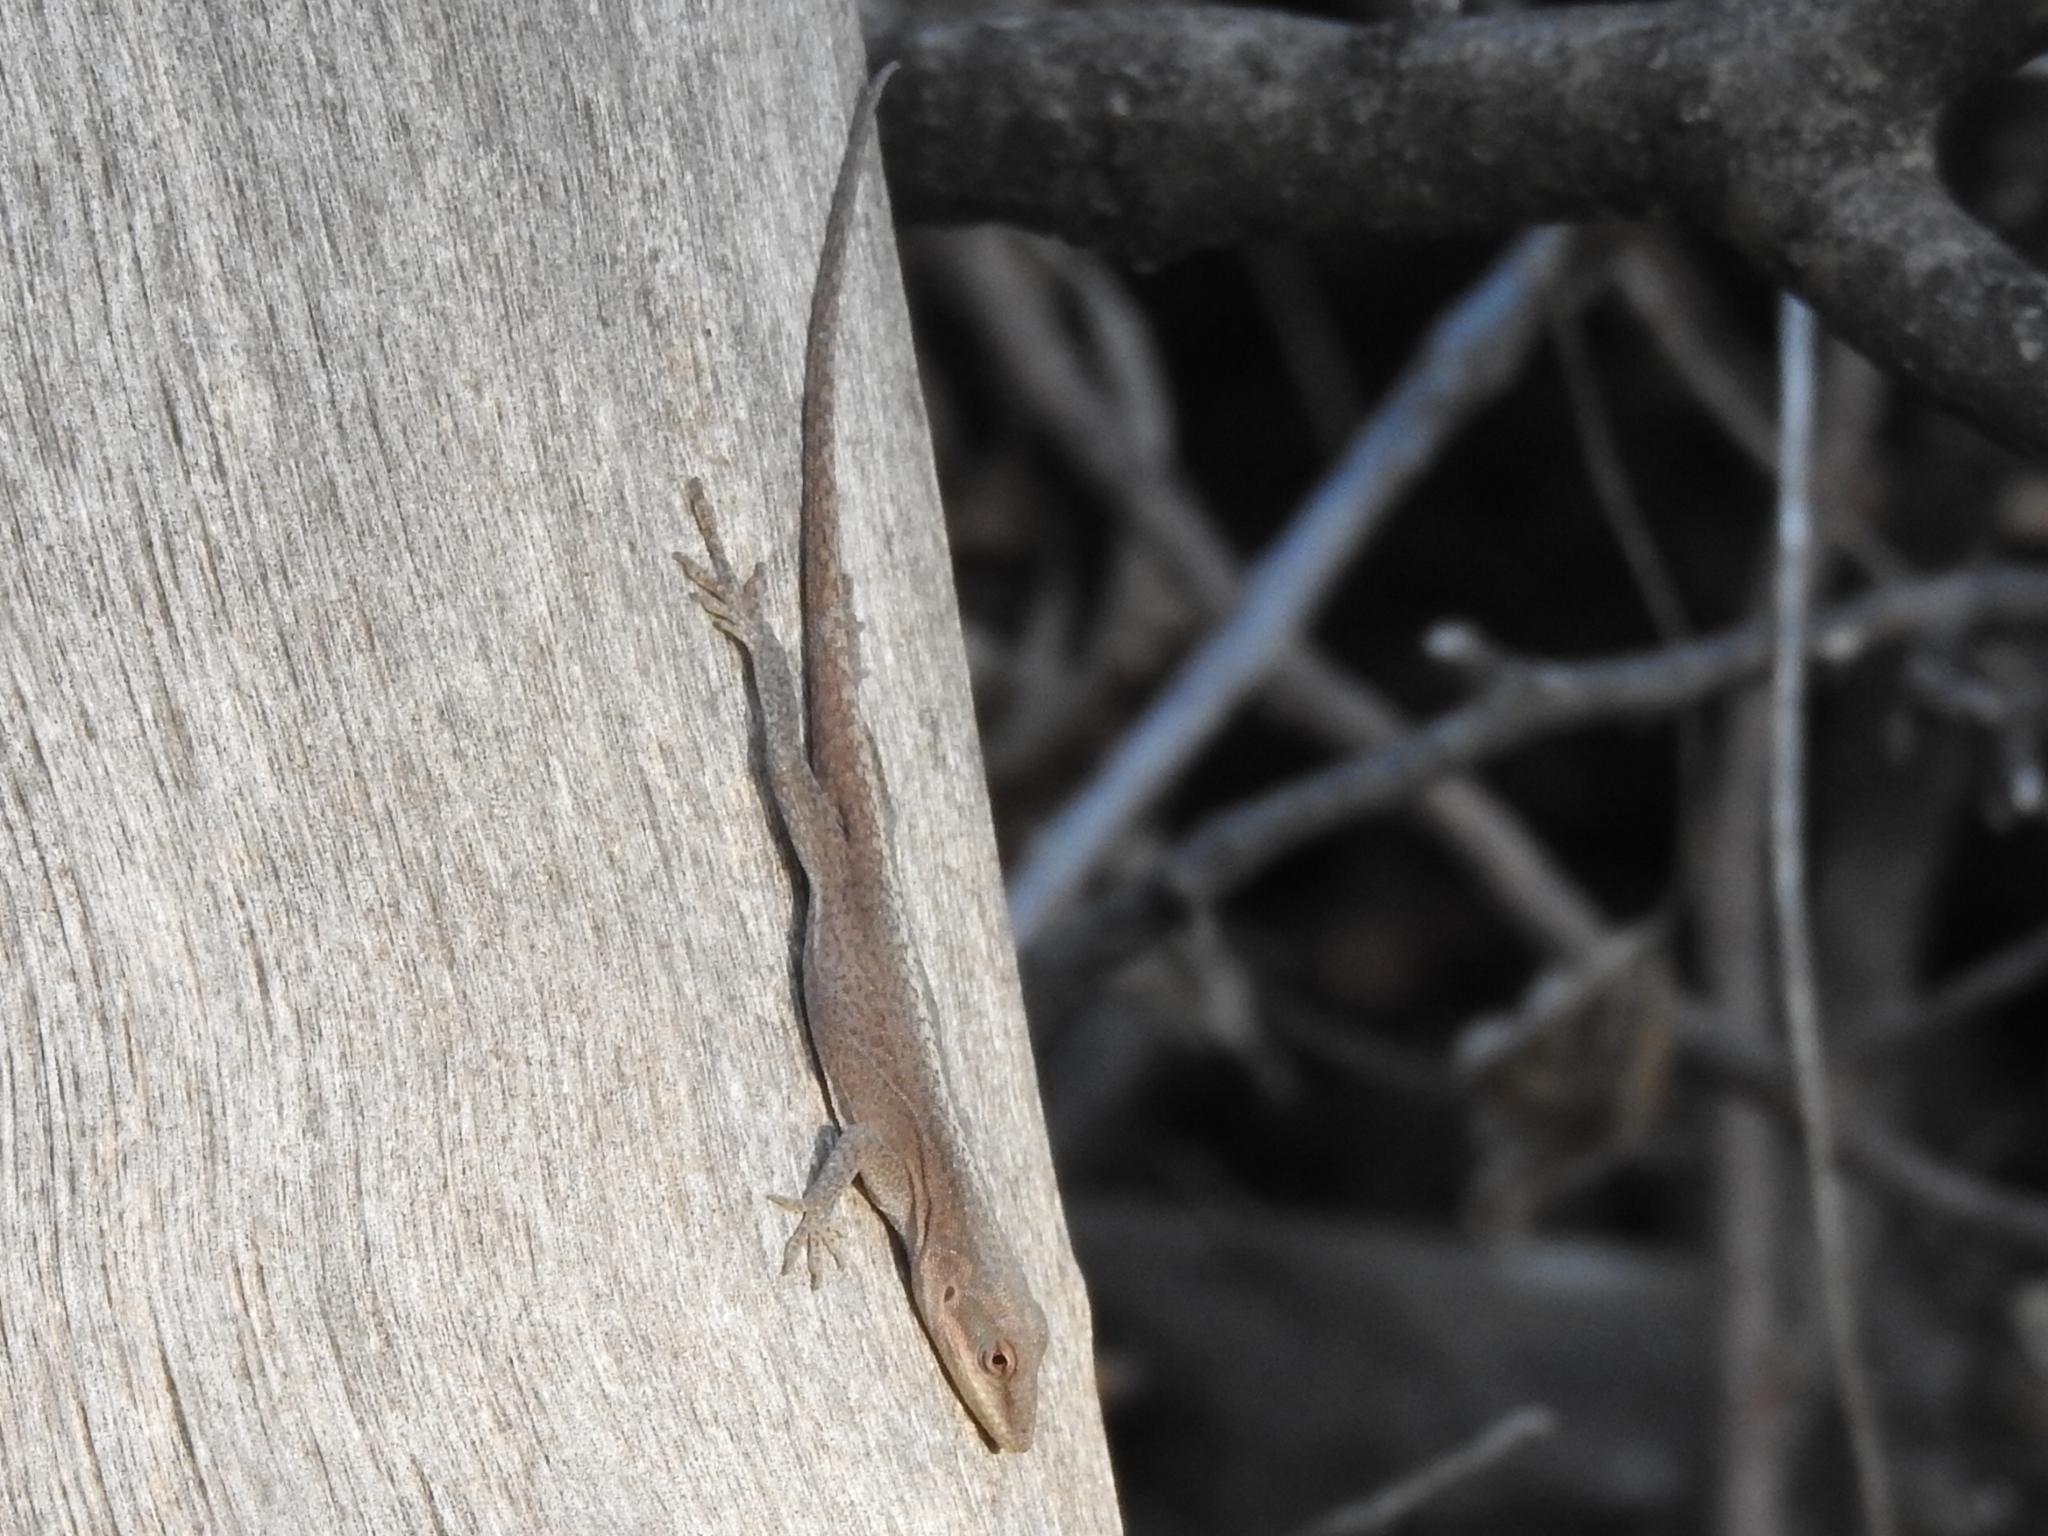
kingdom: Animalia
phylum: Chordata
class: Squamata
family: Dactyloidae
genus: Anolis
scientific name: Anolis carolinensis
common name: Green anole
